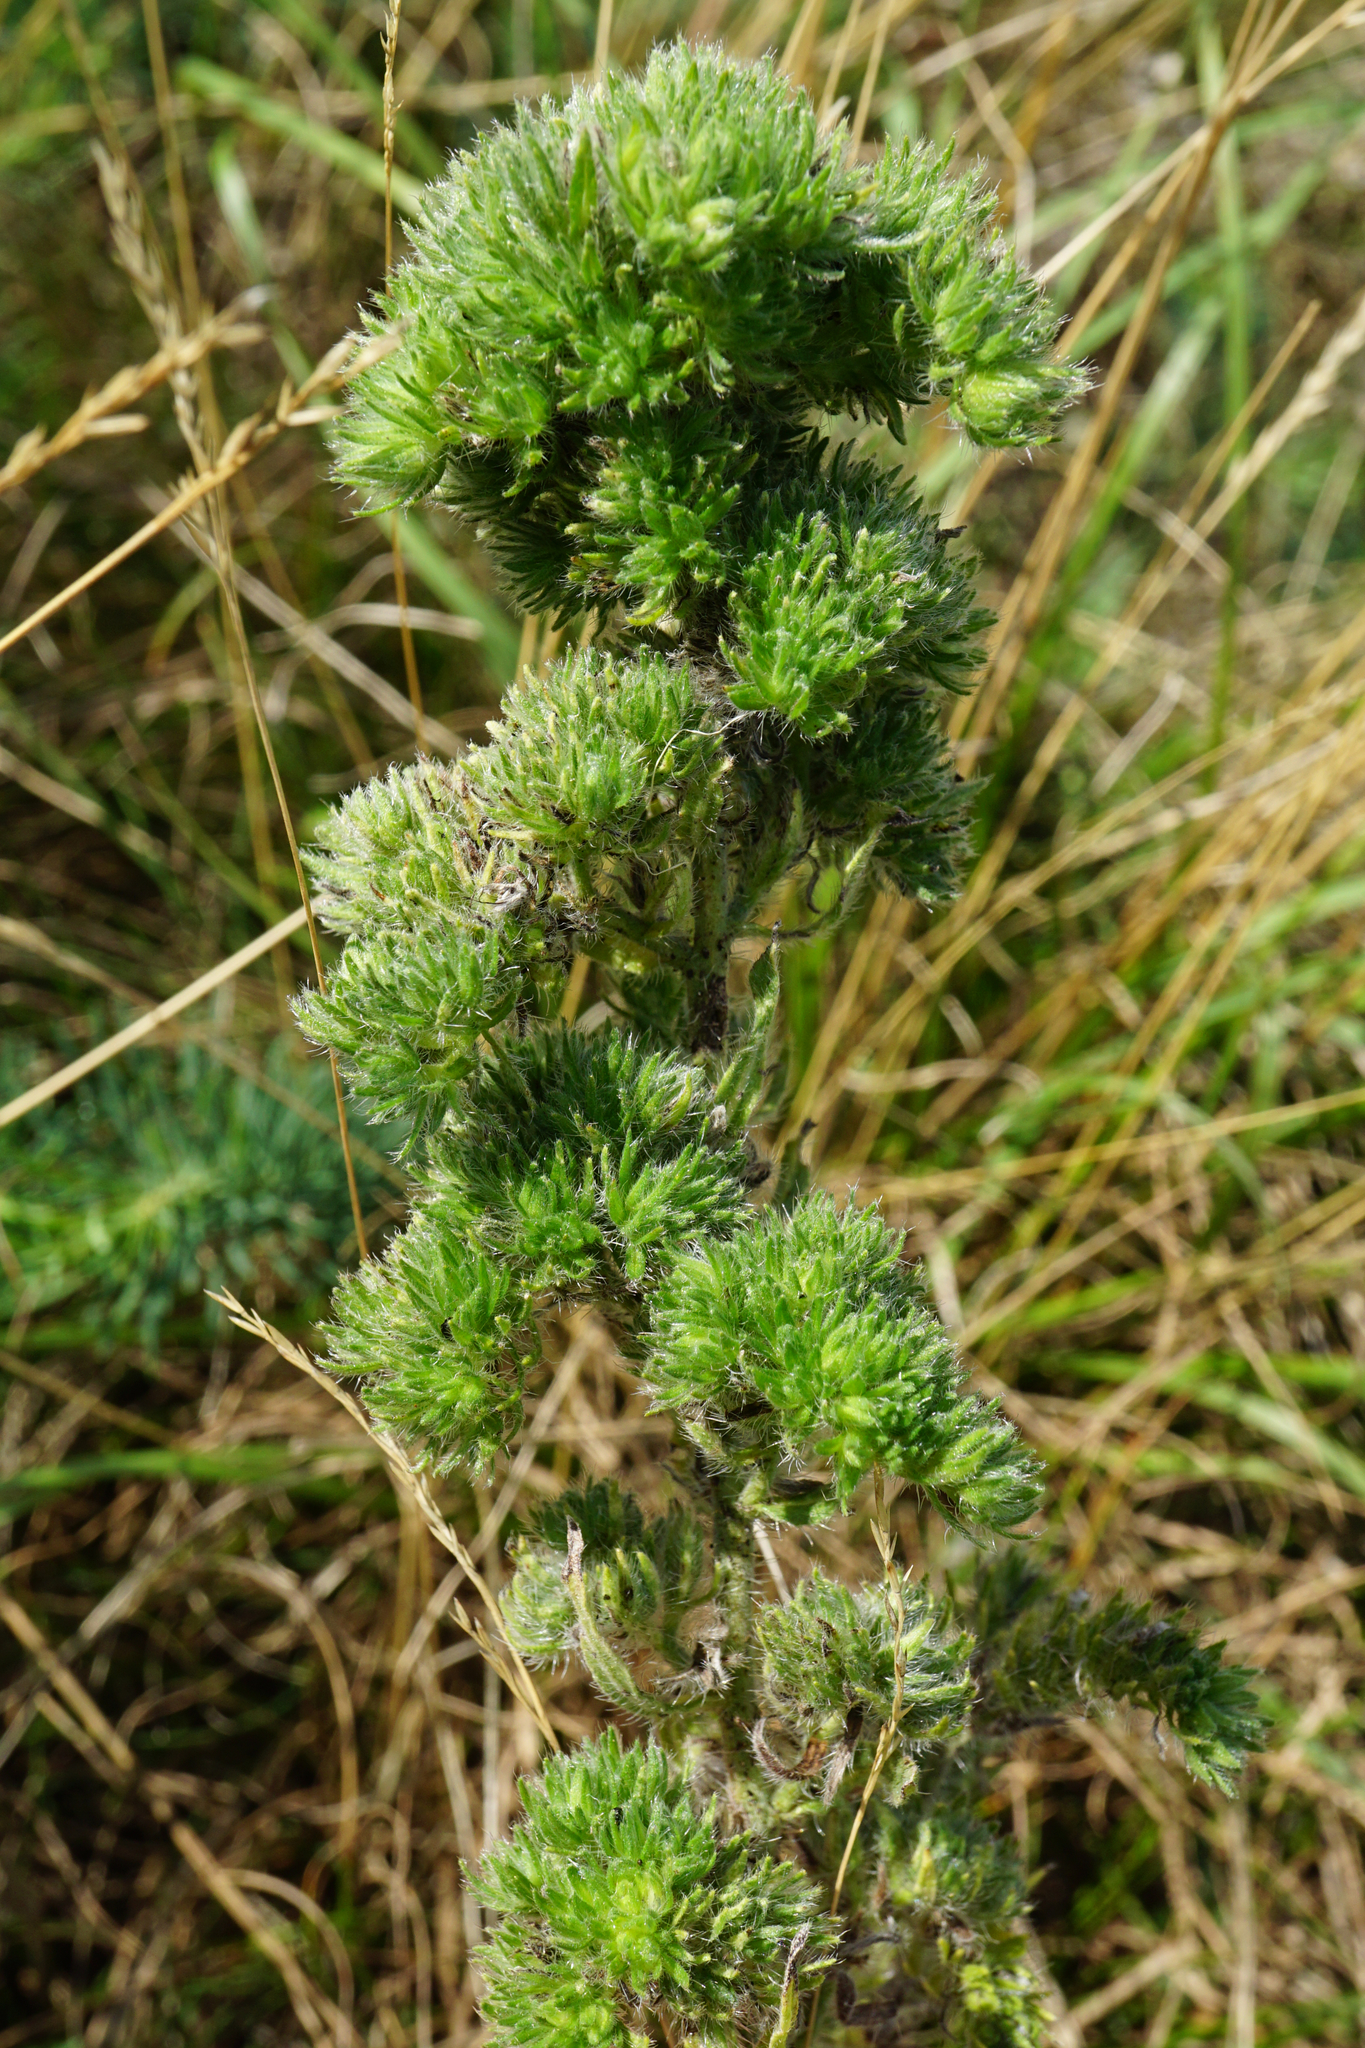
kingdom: Plantae
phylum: Tracheophyta
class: Magnoliopsida
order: Boraginales
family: Boraginaceae
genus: Echium
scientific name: Echium vulgare
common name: Common viper's bugloss
